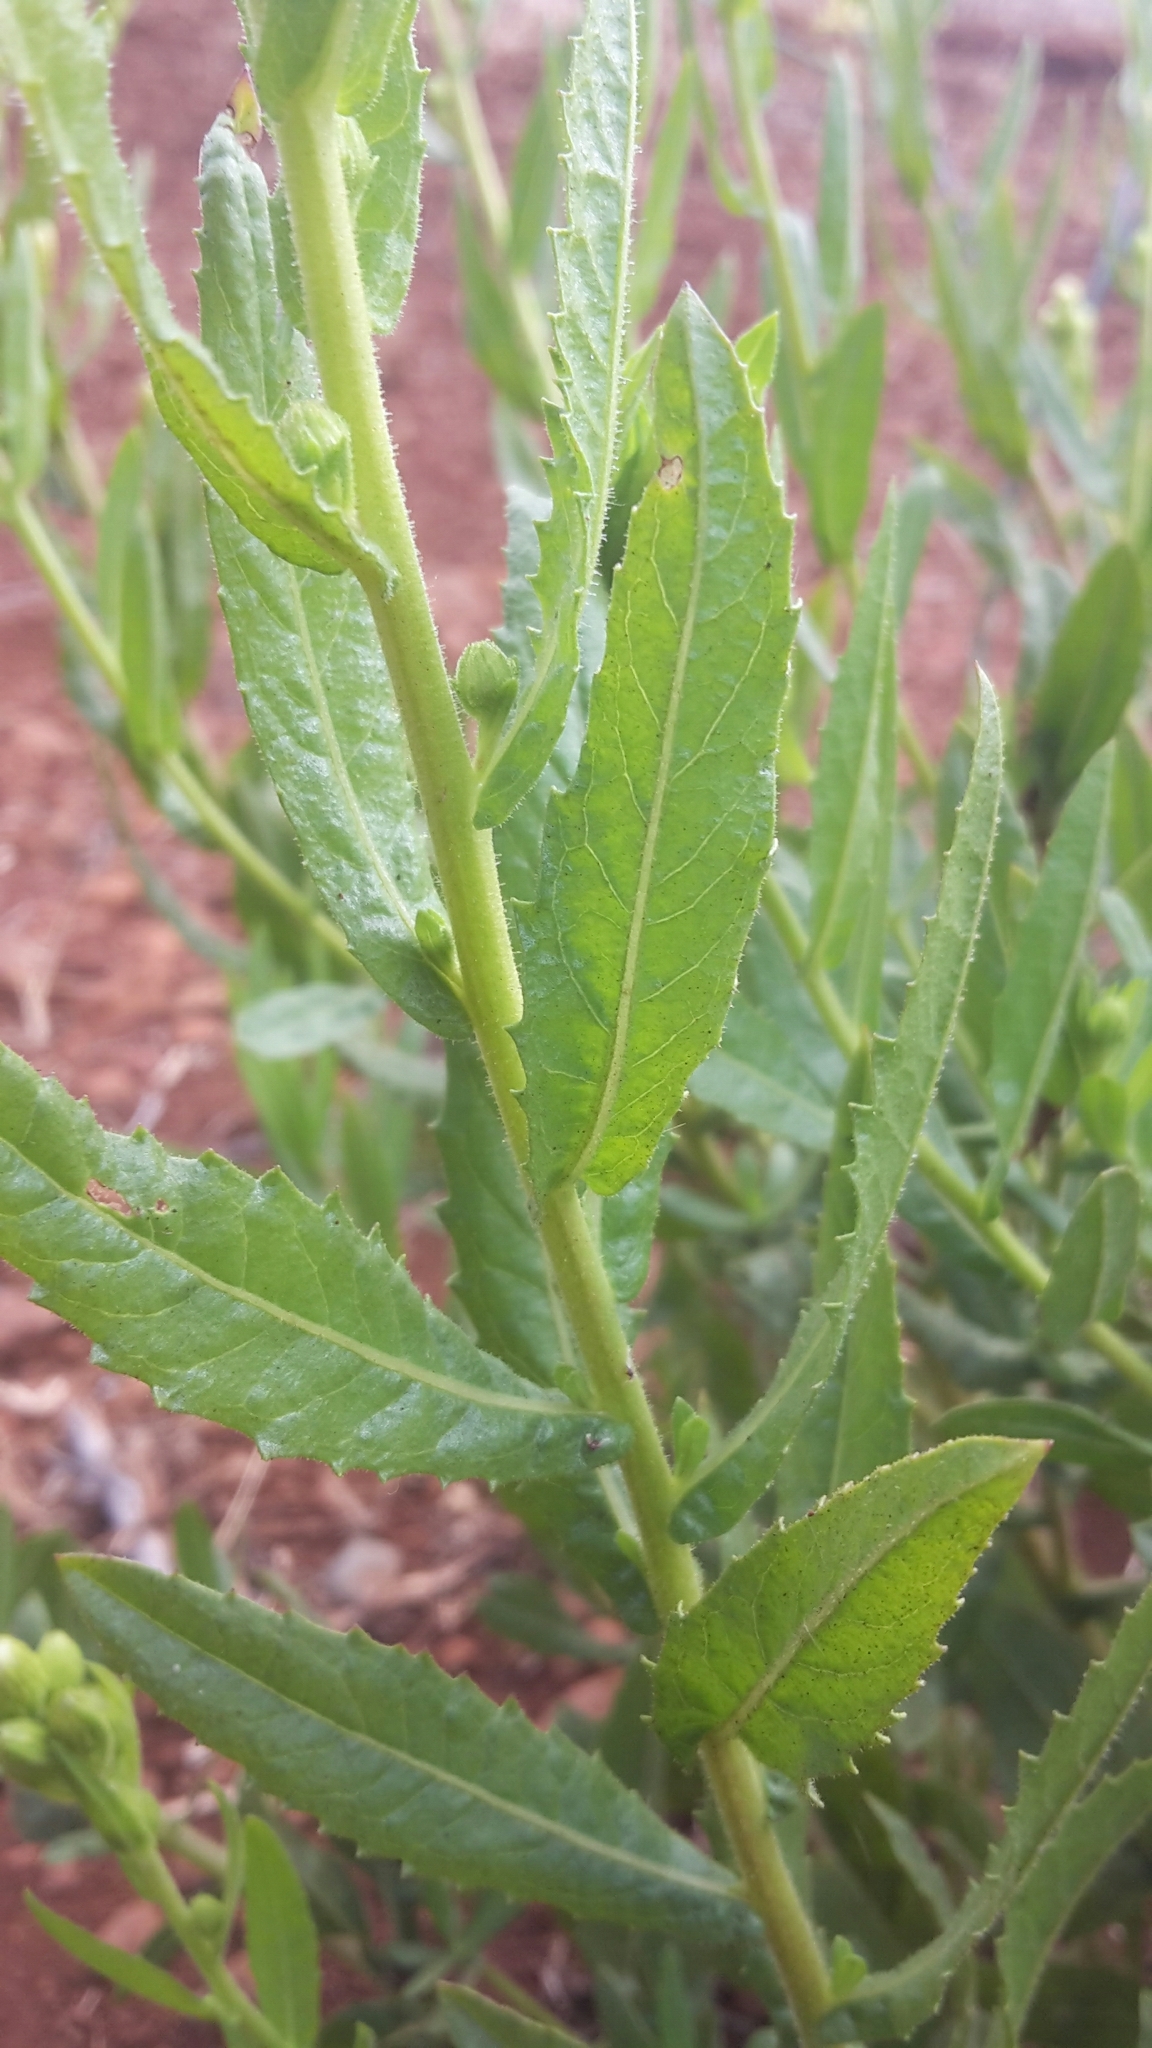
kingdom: Plantae
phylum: Tracheophyta
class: Magnoliopsida
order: Asterales
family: Asteraceae
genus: Dittrichia
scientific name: Dittrichia viscosa
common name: Woody fleabane
